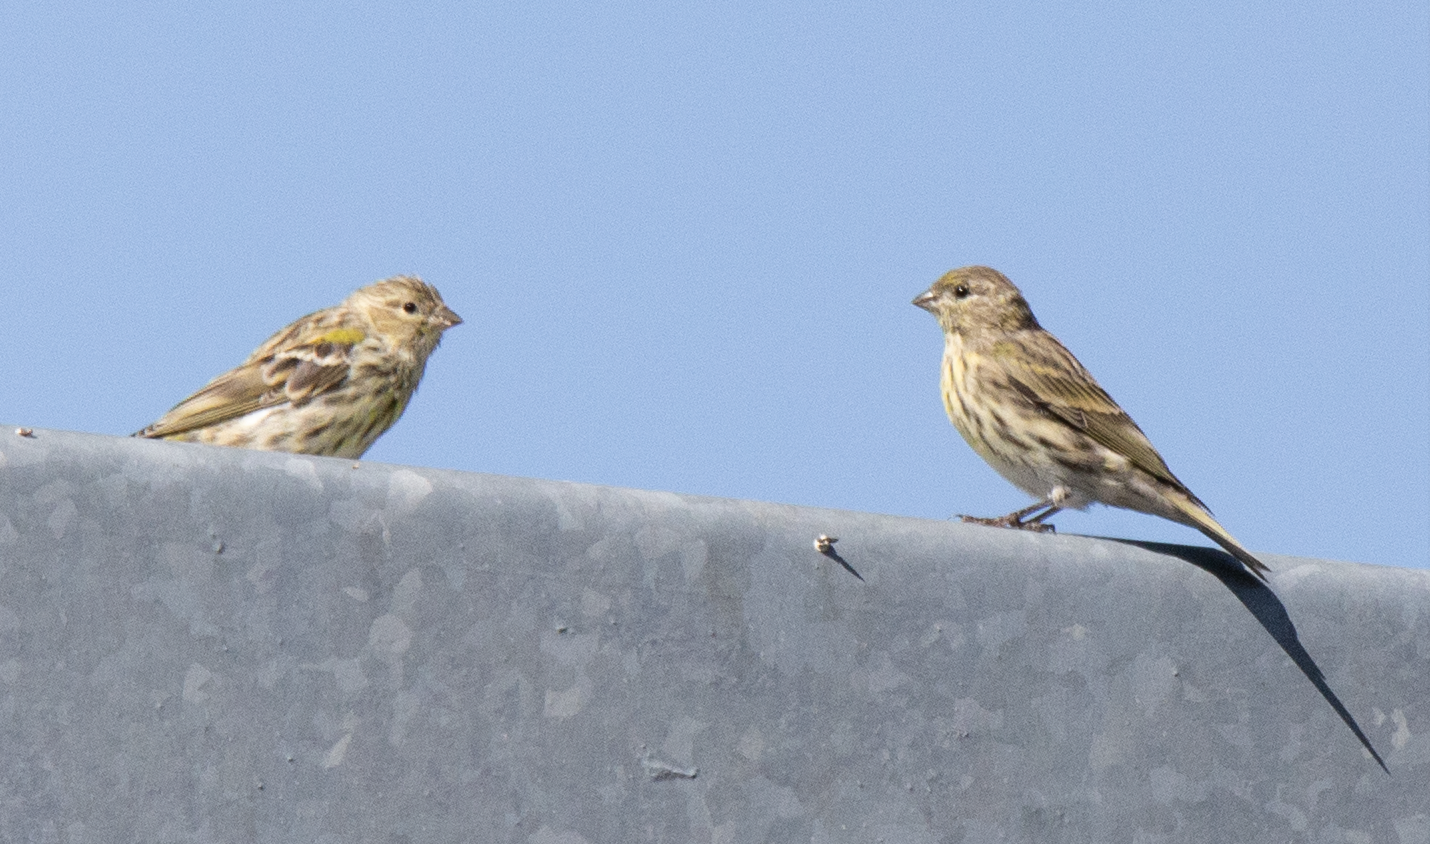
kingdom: Animalia
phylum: Chordata
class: Aves
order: Passeriformes
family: Fringillidae
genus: Serinus
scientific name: Serinus serinus
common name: European serin
